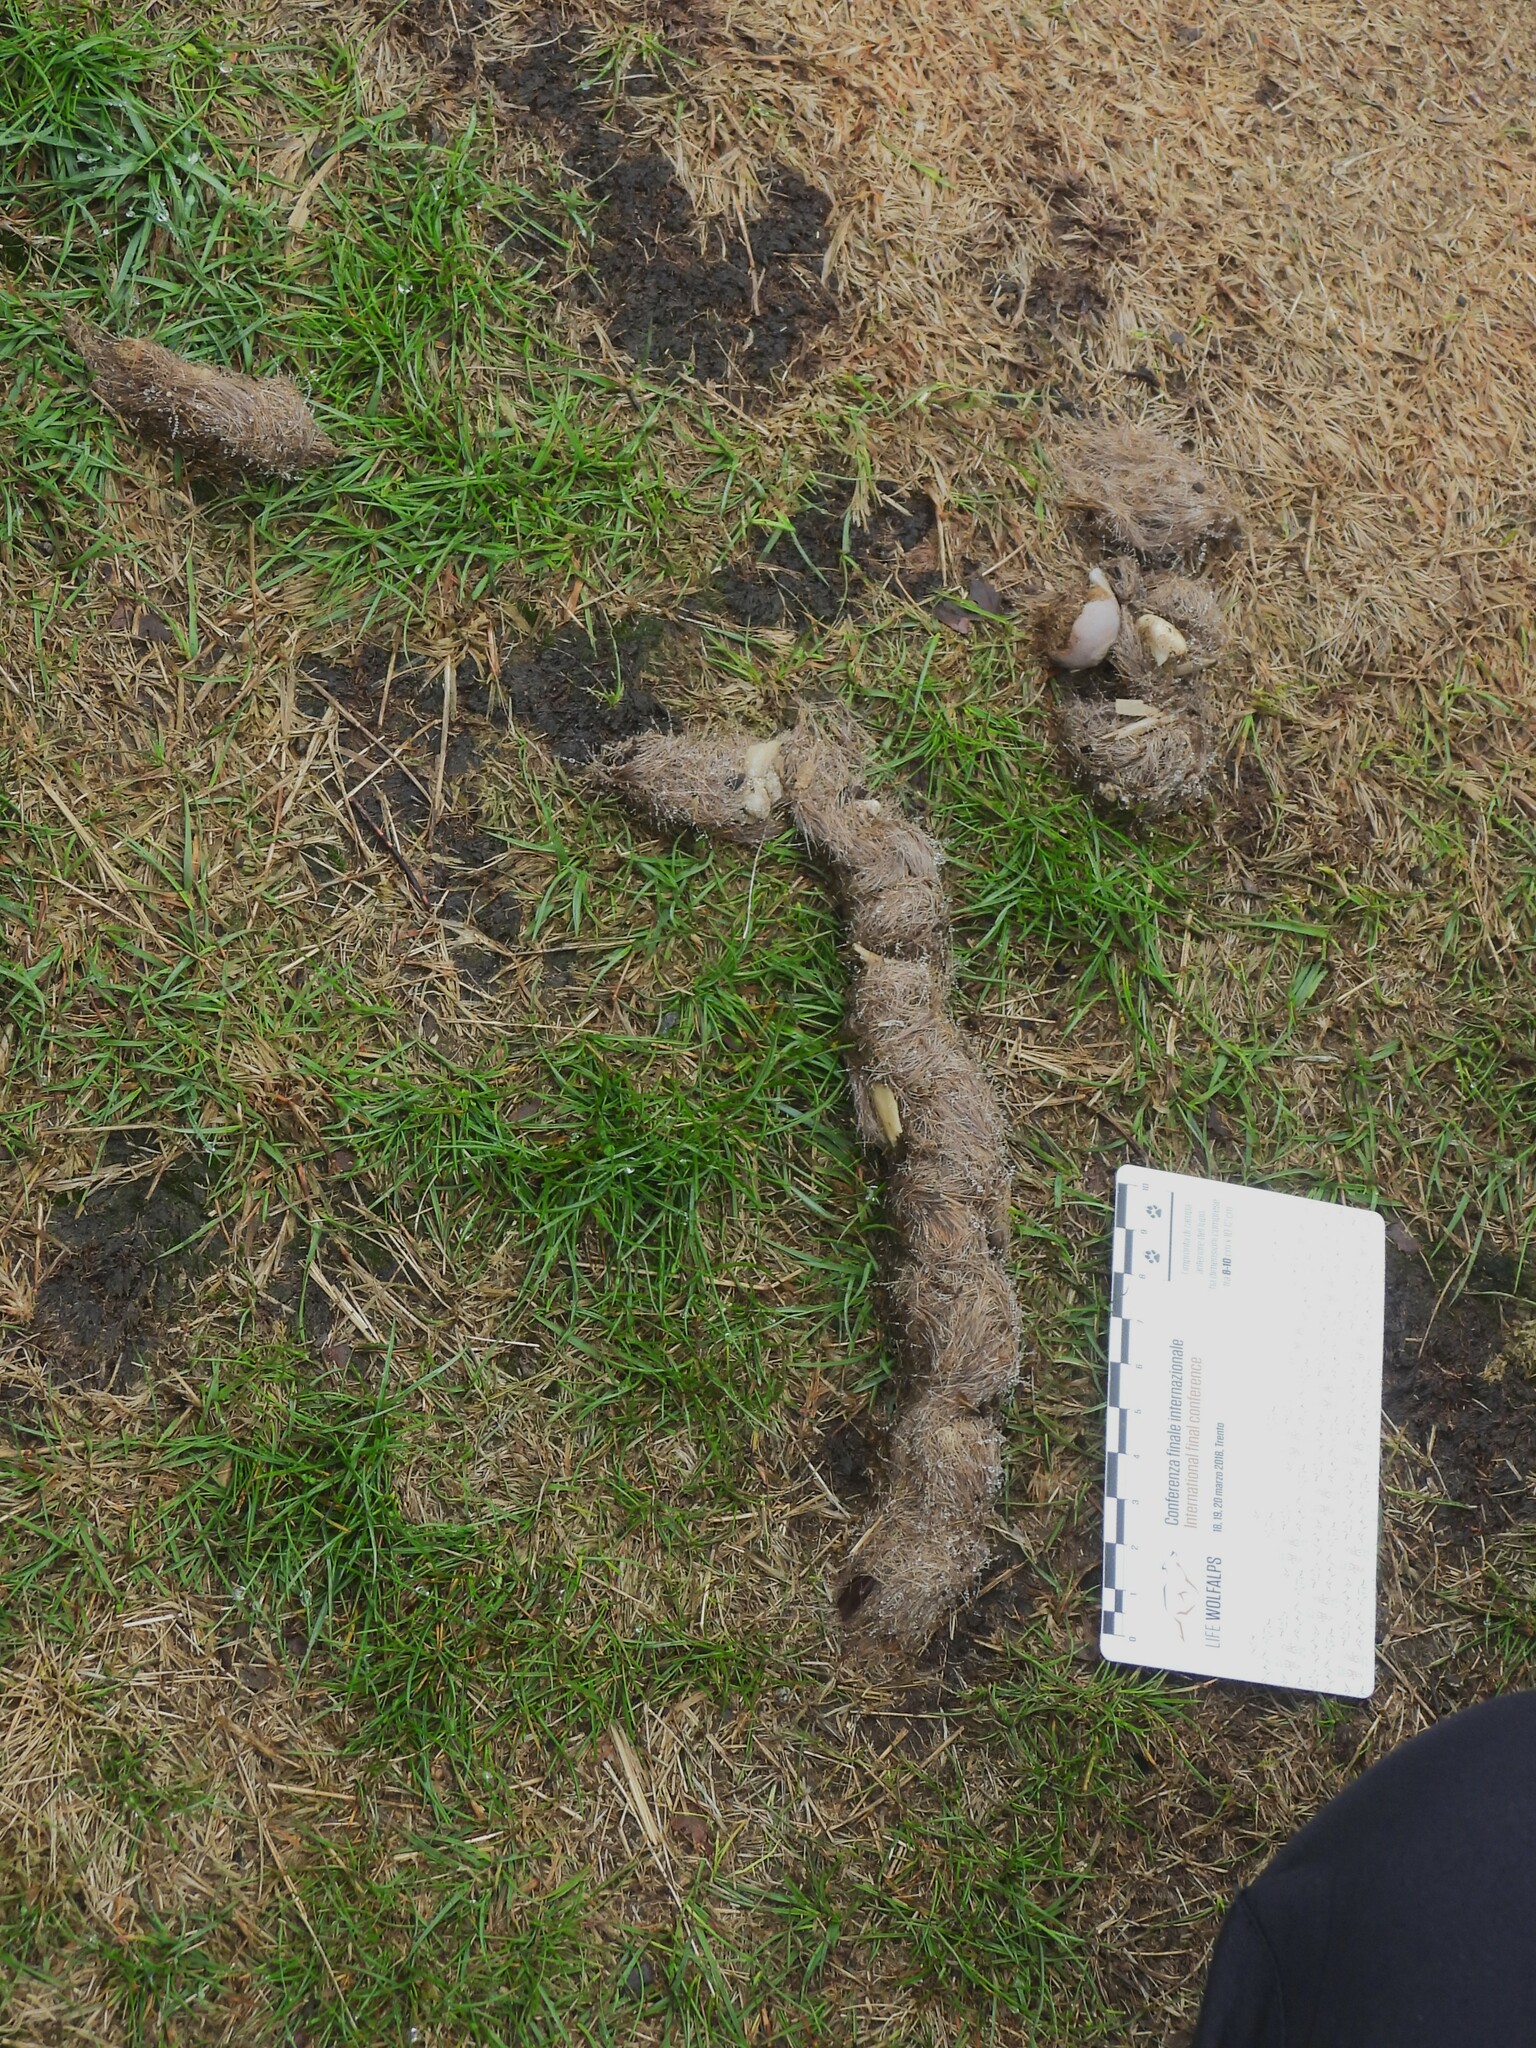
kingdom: Animalia
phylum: Chordata
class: Mammalia
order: Carnivora
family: Canidae
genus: Canis
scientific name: Canis lupus
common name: Gray wolf
